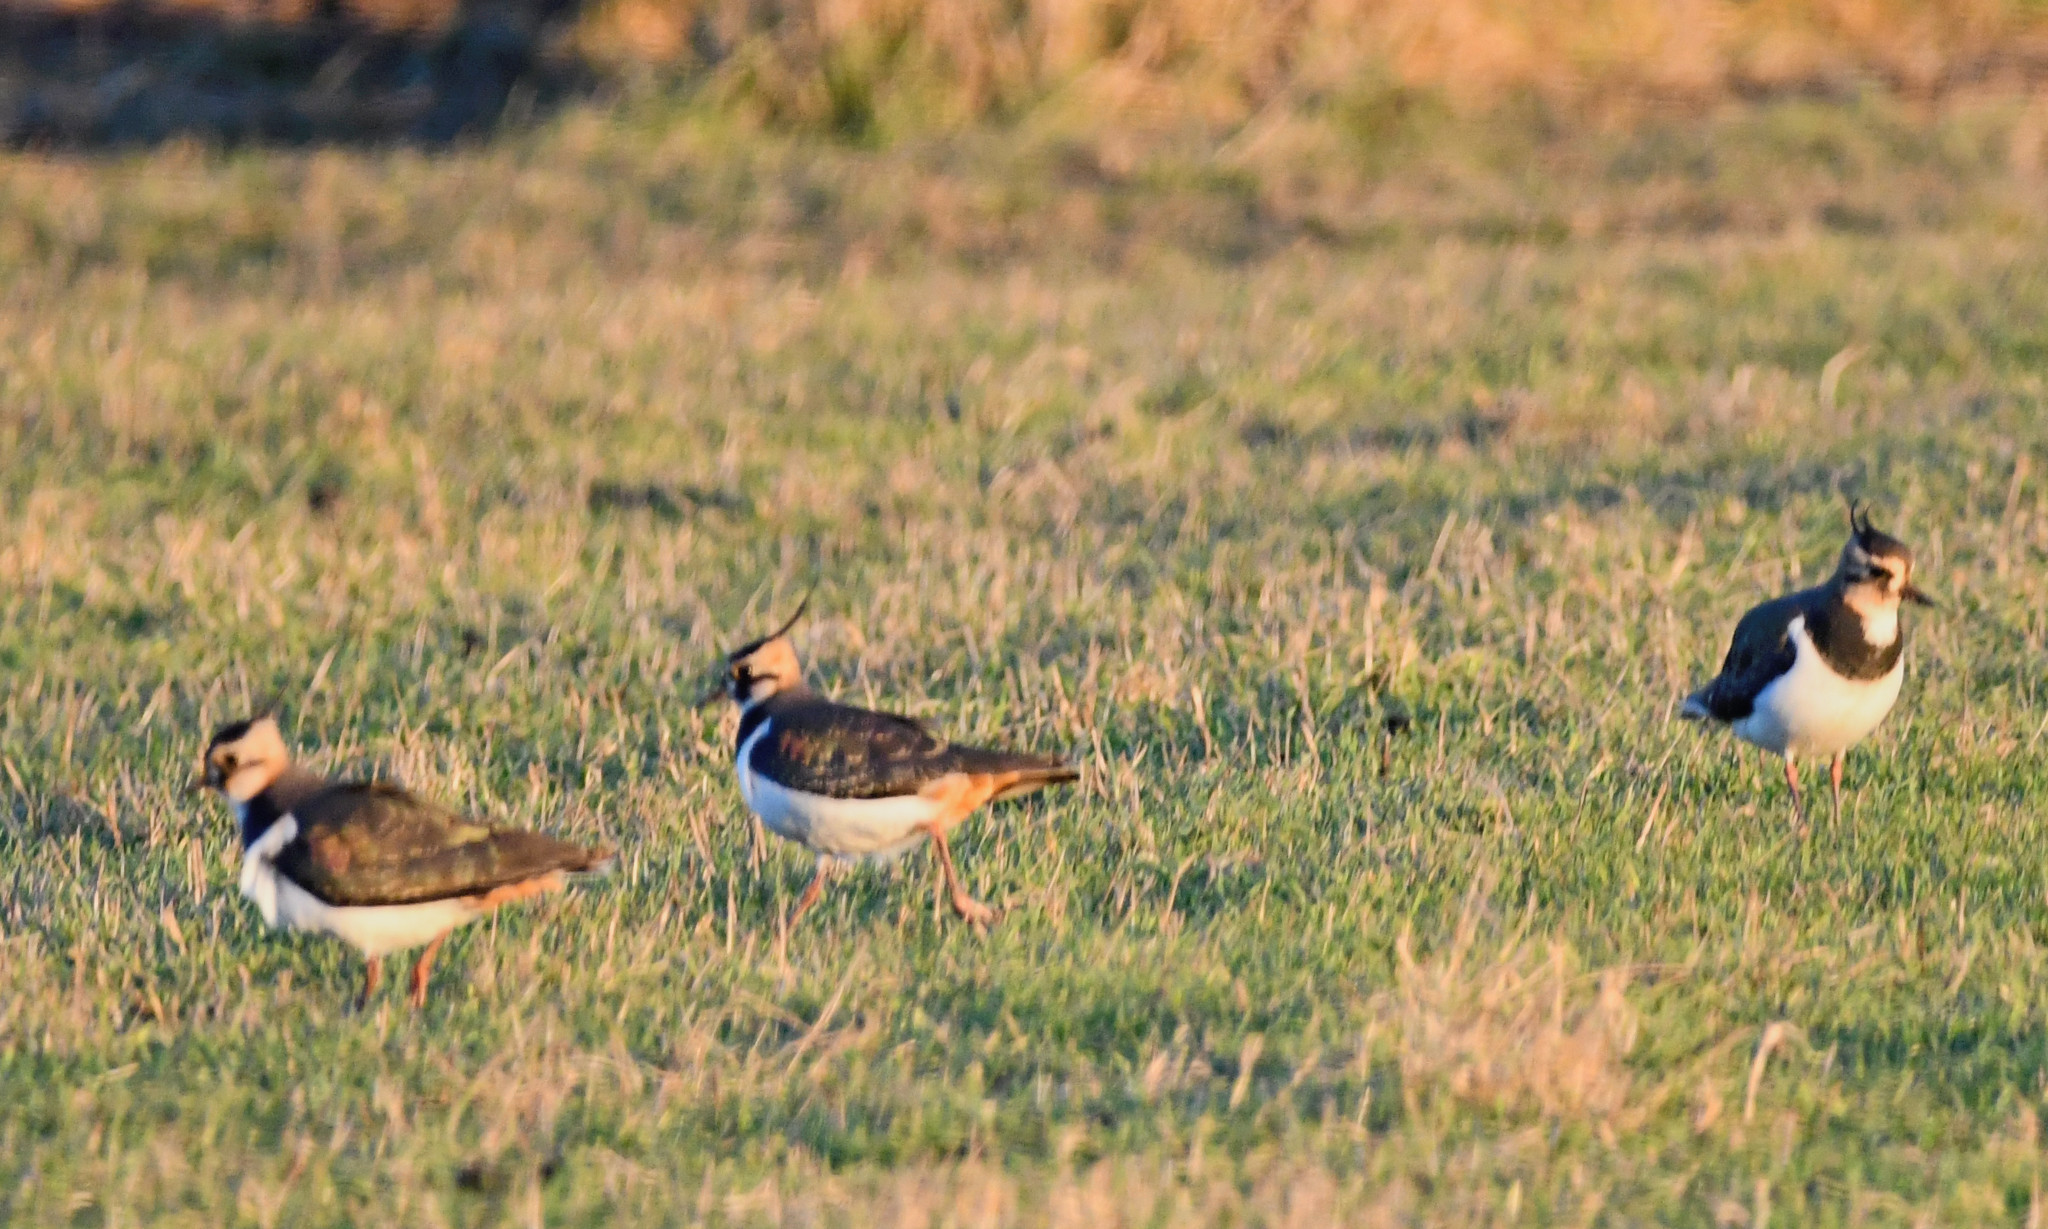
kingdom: Animalia
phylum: Chordata
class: Aves
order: Charadriiformes
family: Charadriidae
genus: Vanellus
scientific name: Vanellus vanellus
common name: Northern lapwing
